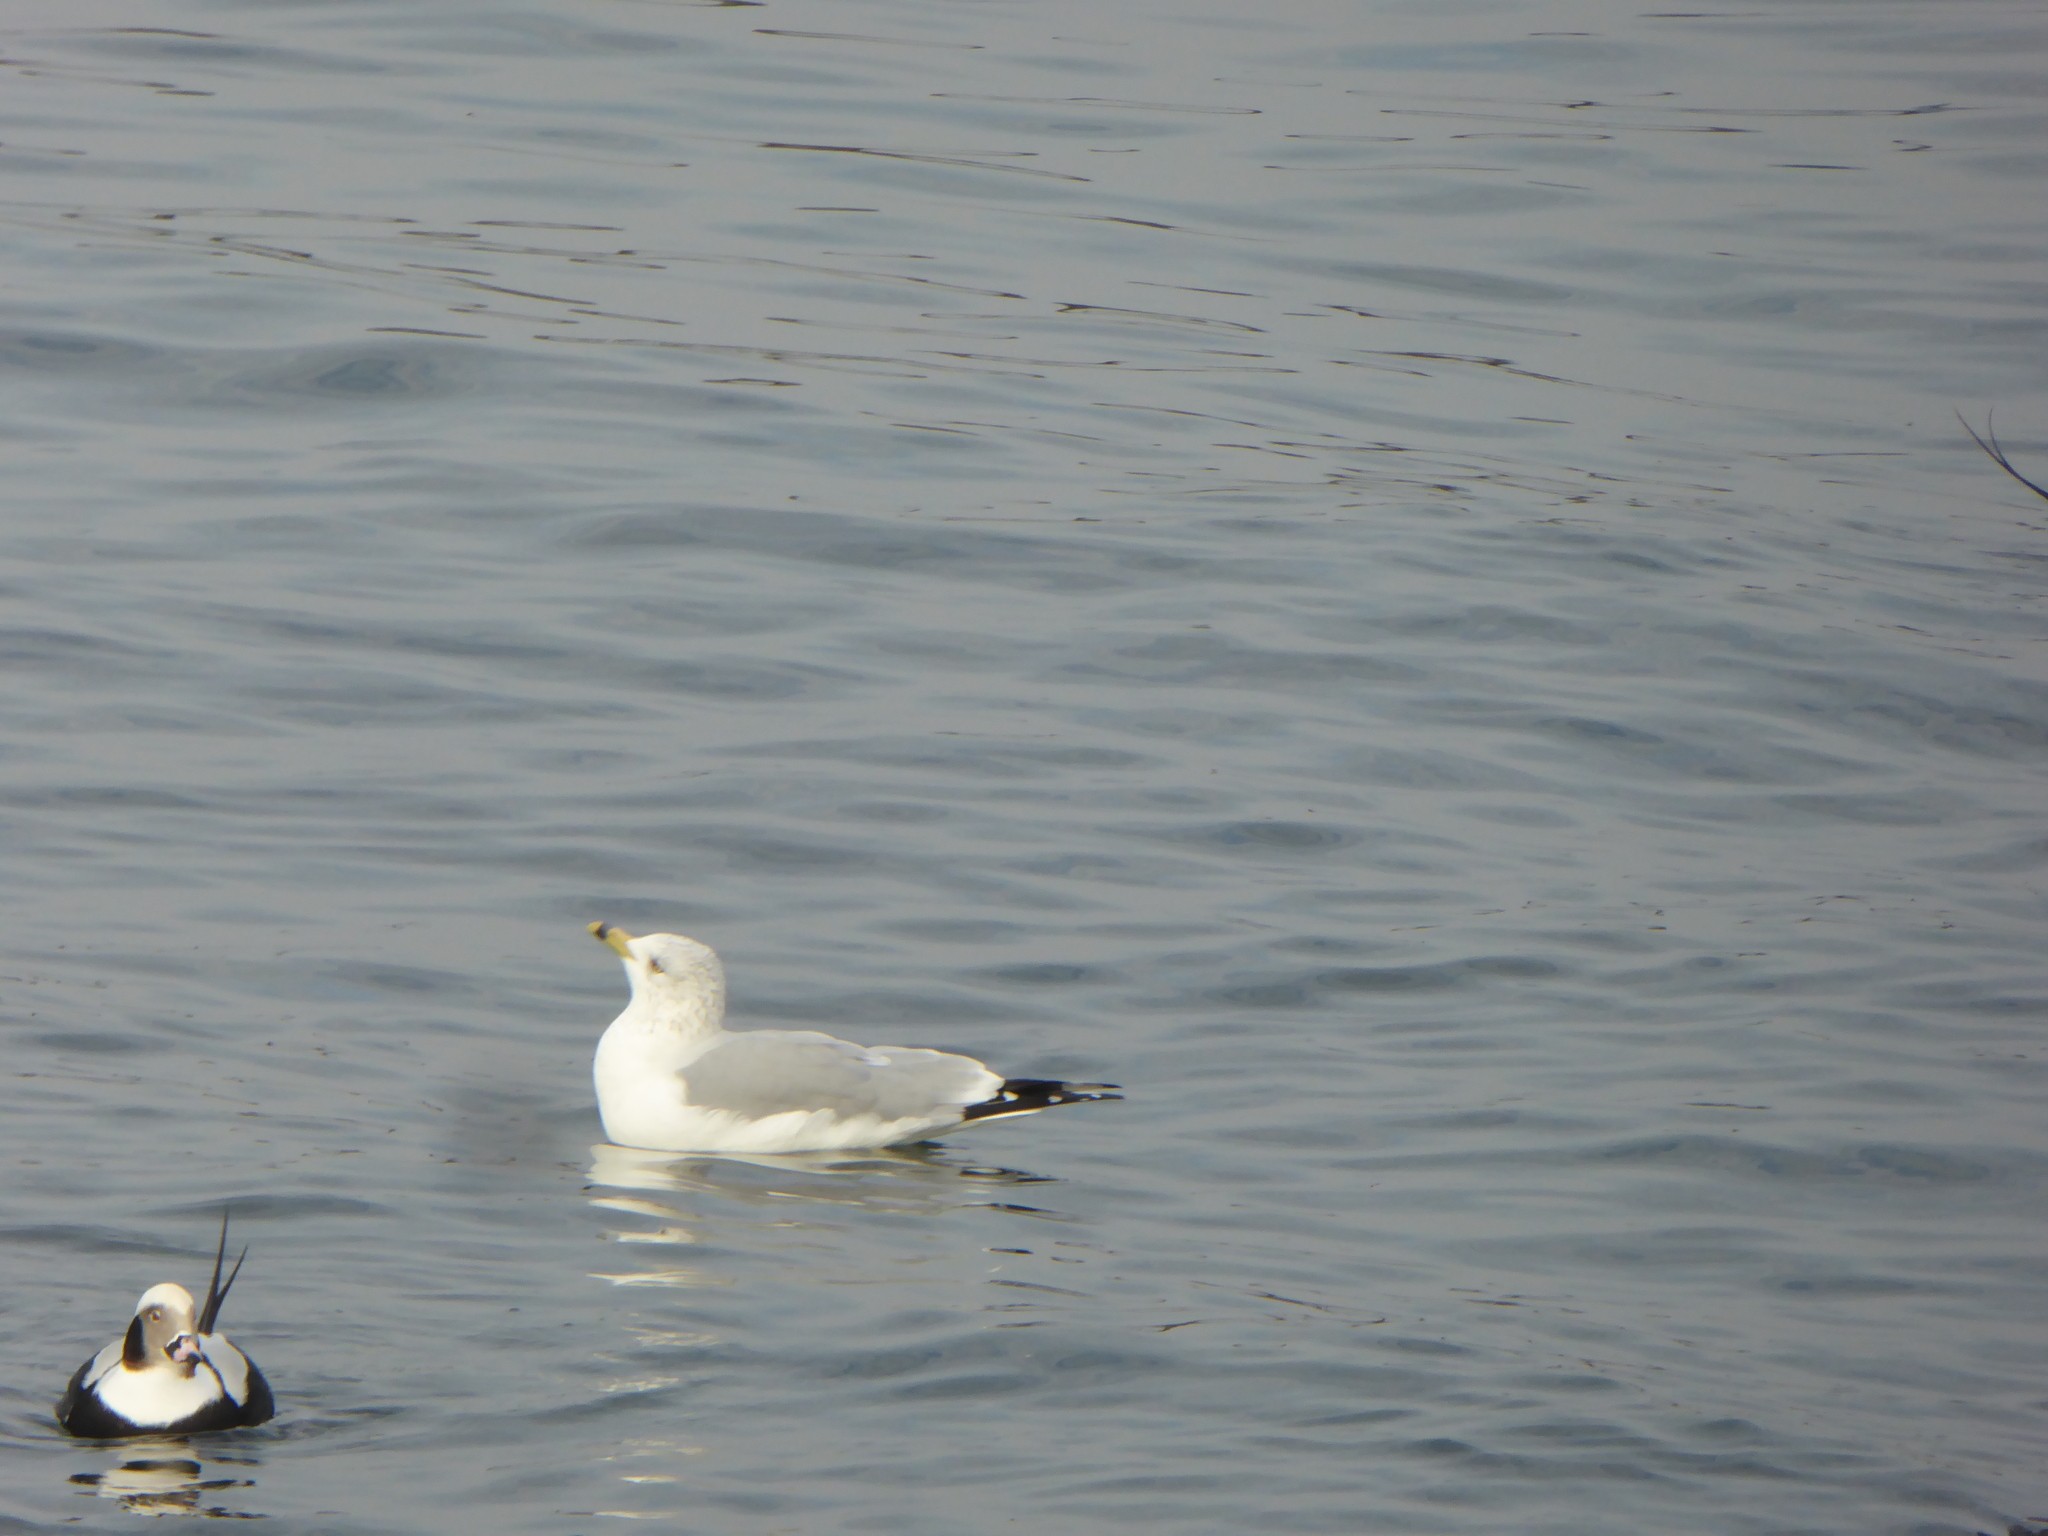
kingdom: Animalia
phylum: Chordata
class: Aves
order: Charadriiformes
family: Laridae
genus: Larus
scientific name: Larus delawarensis
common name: Ring-billed gull
